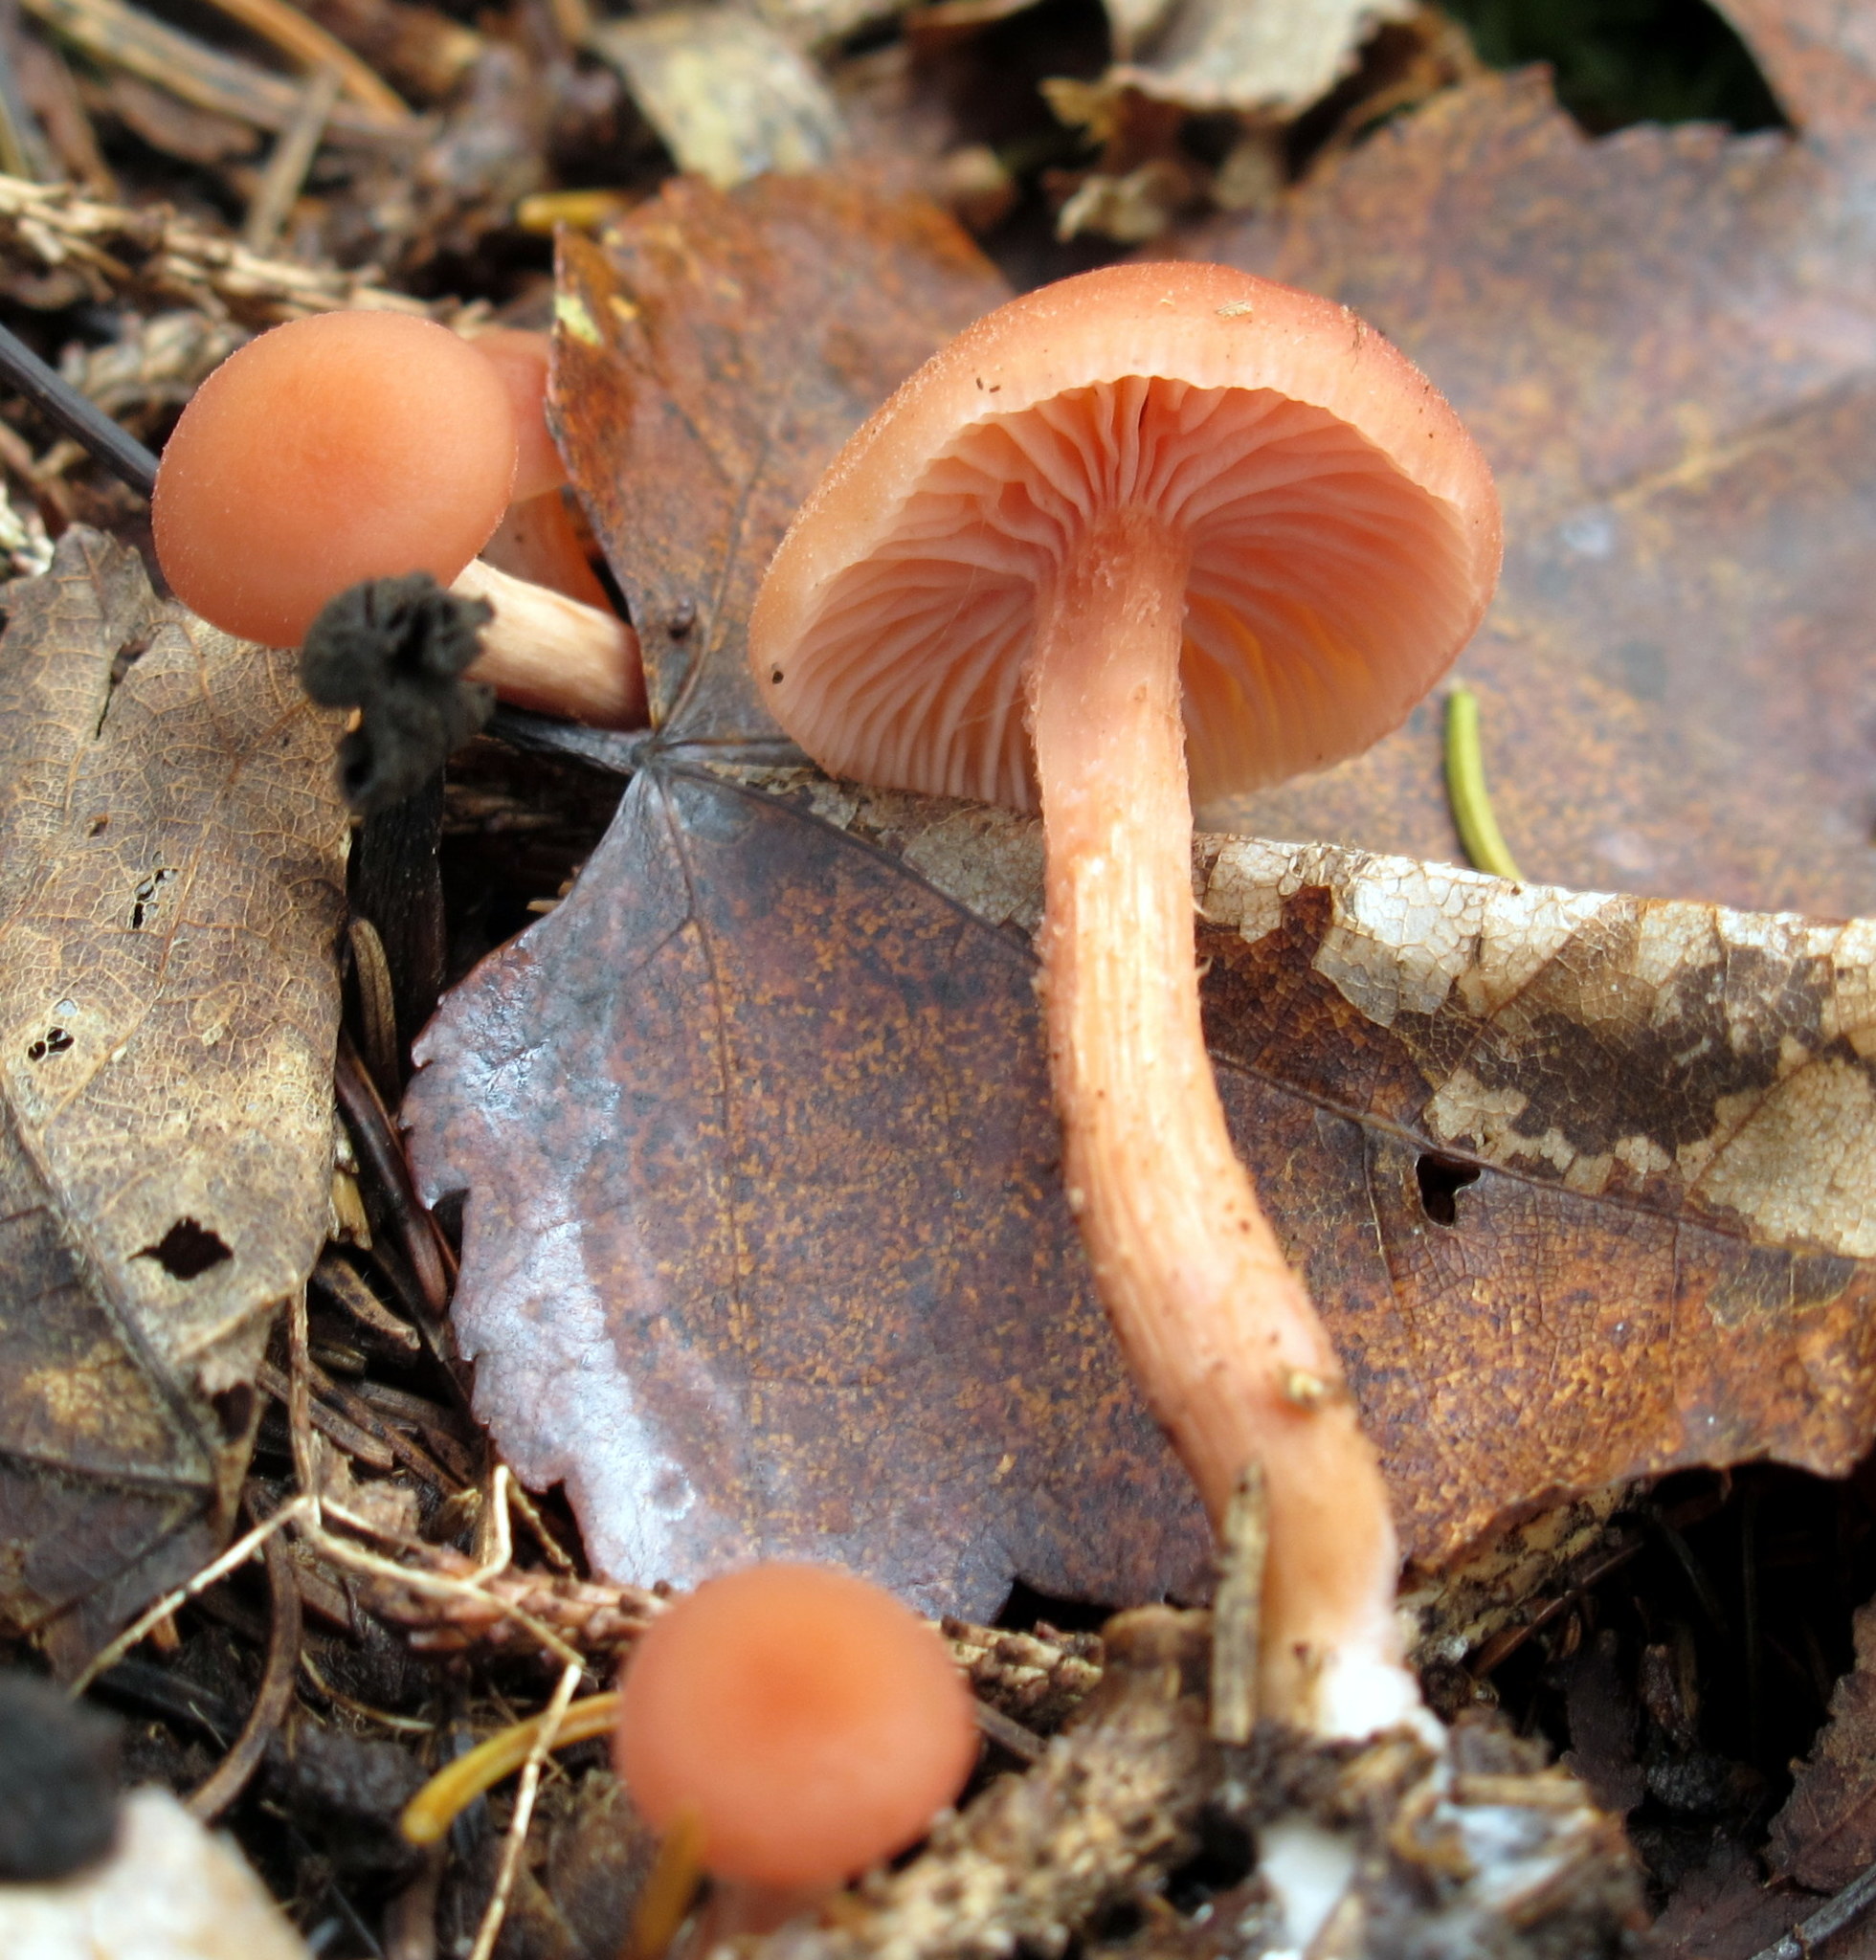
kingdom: Fungi
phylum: Basidiomycota
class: Agaricomycetes
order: Agaricales
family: Hydnangiaceae
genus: Laccaria
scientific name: Laccaria laccata
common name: Deceiver
